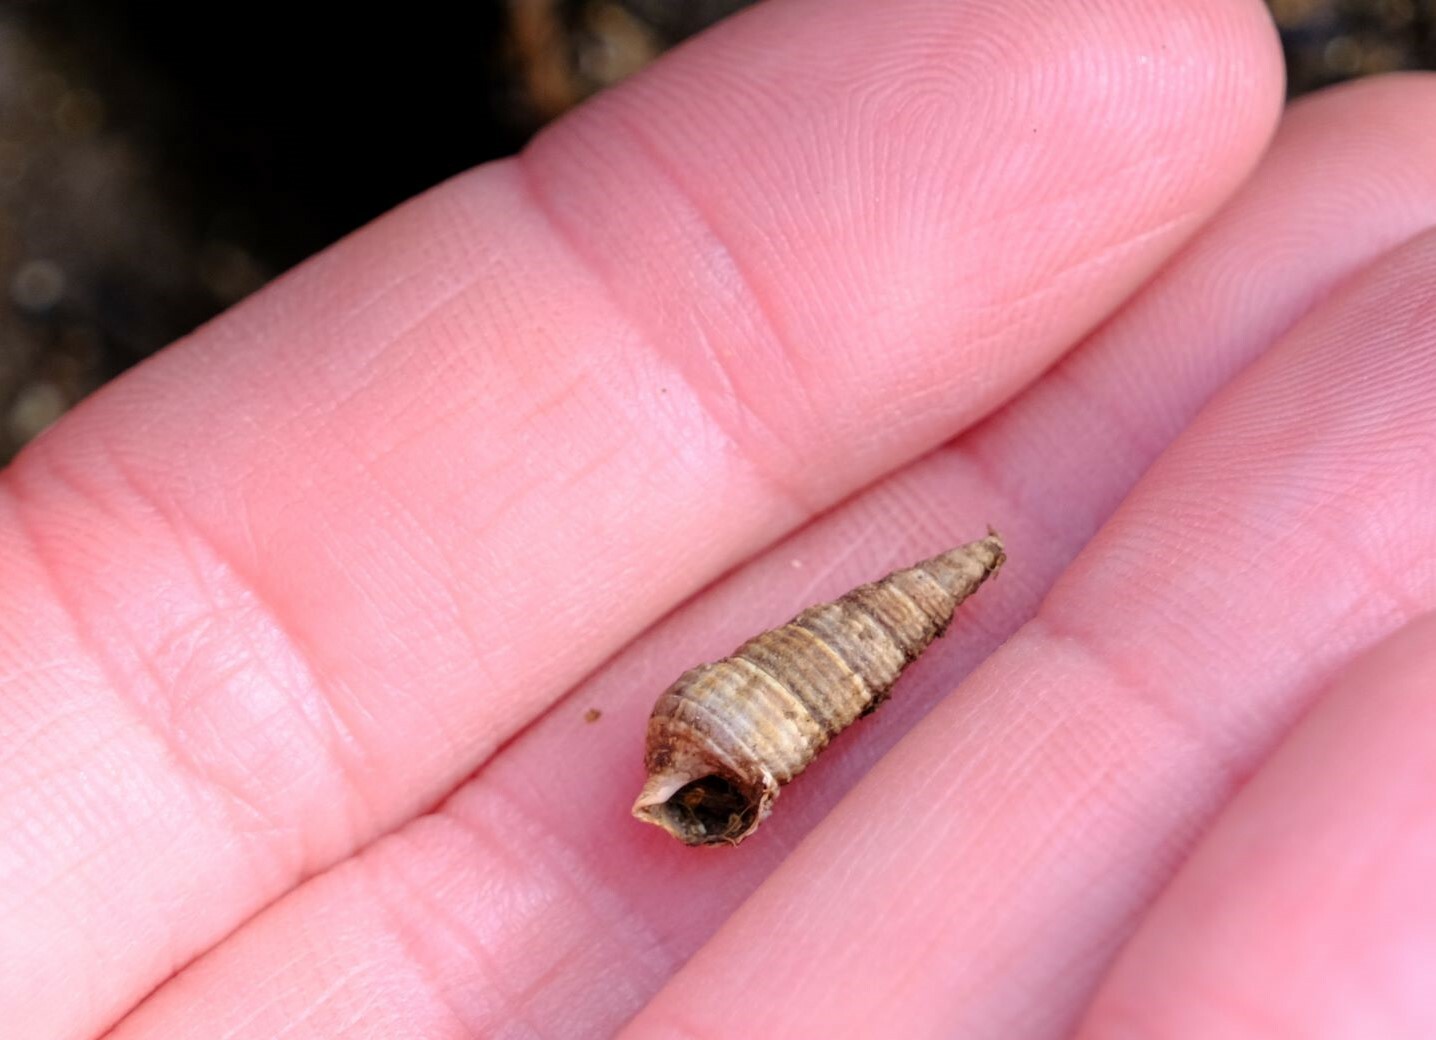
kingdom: Animalia
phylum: Mollusca
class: Gastropoda
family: Batillariidae
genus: Zeacumantus
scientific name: Zeacumantus diemenensis
